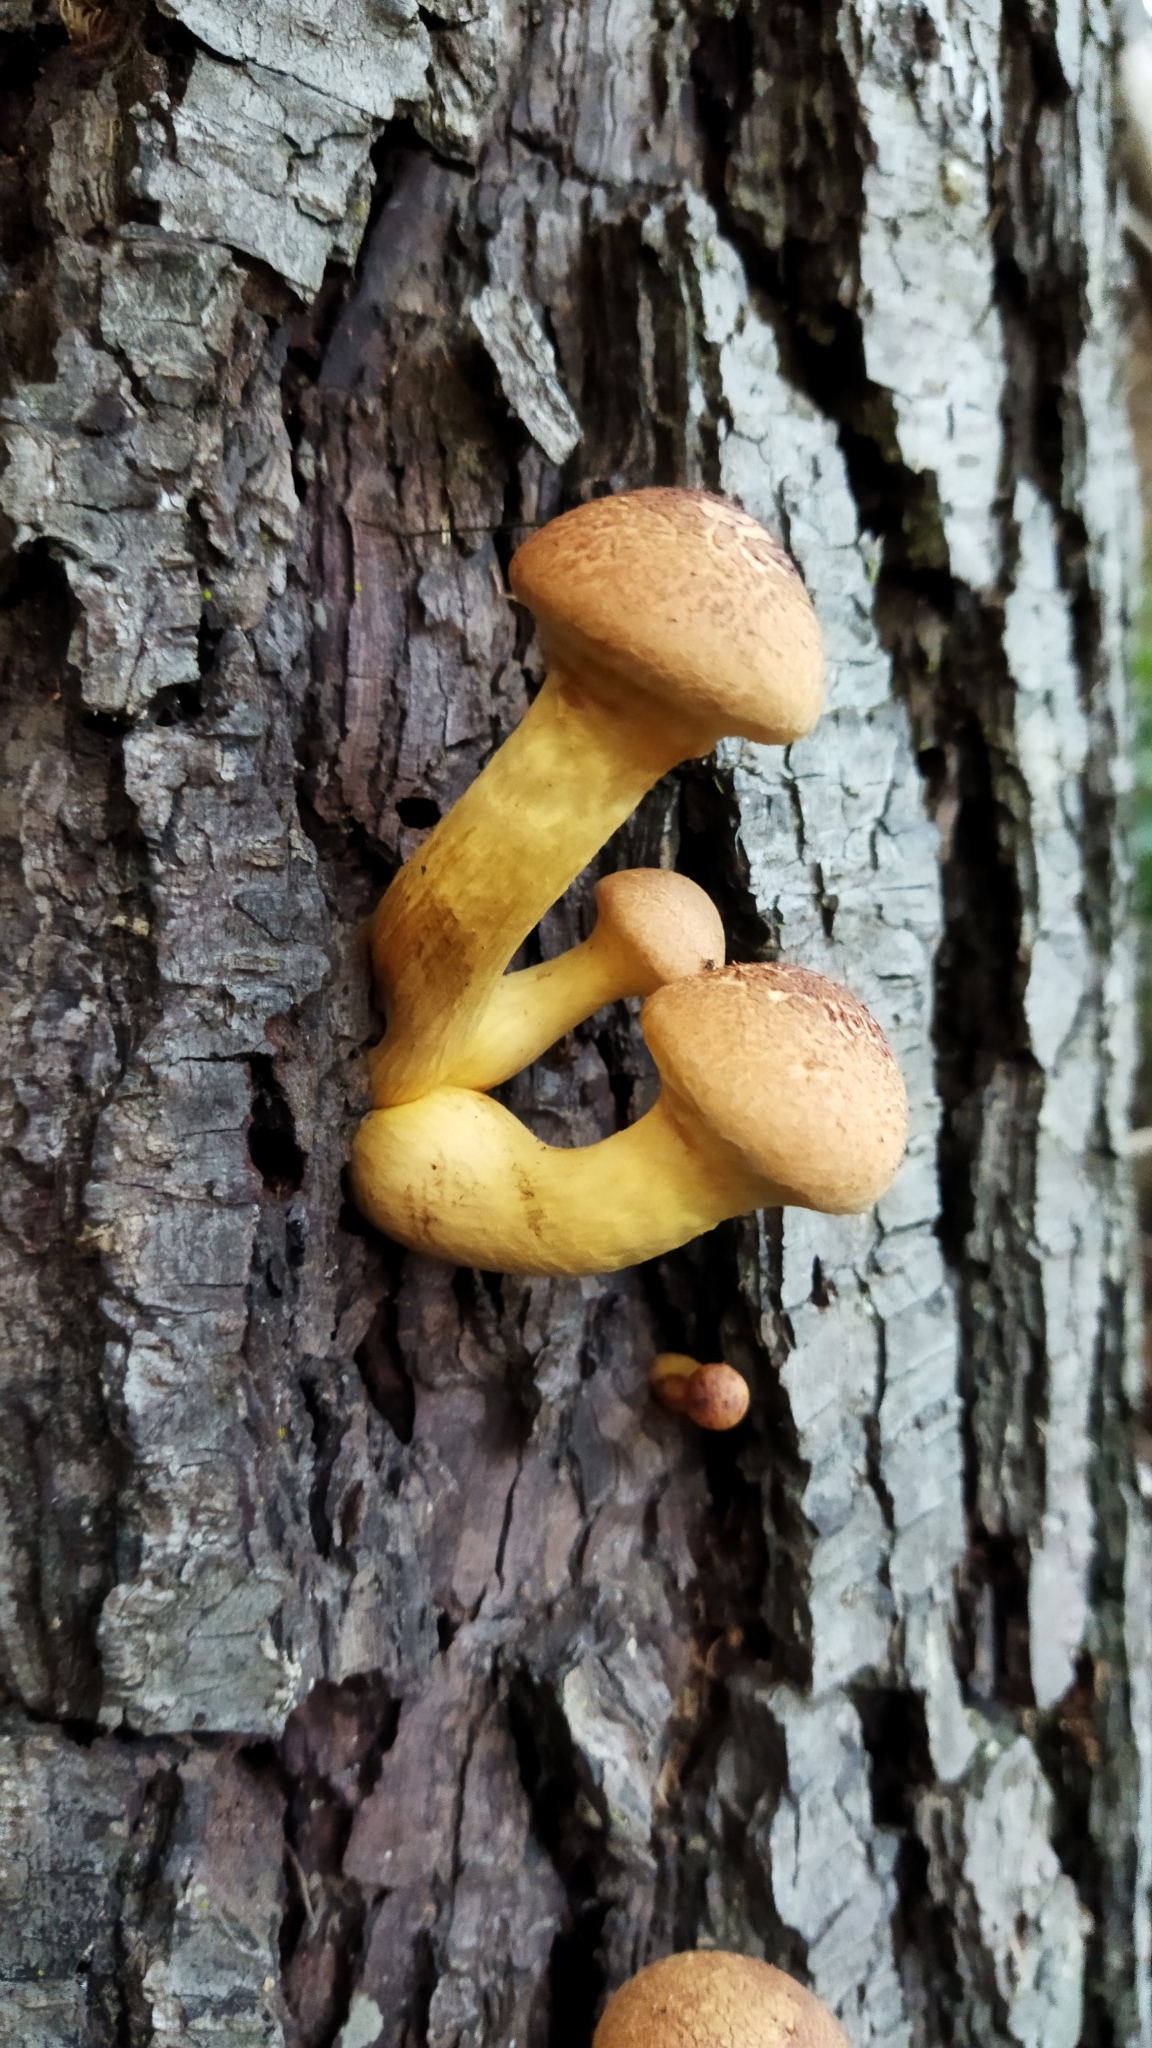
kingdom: Fungi
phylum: Basidiomycota
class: Agaricomycetes
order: Agaricales
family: Hymenogastraceae
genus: Gymnopilus
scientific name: Gymnopilus junonius
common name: Spectacular rustgill
